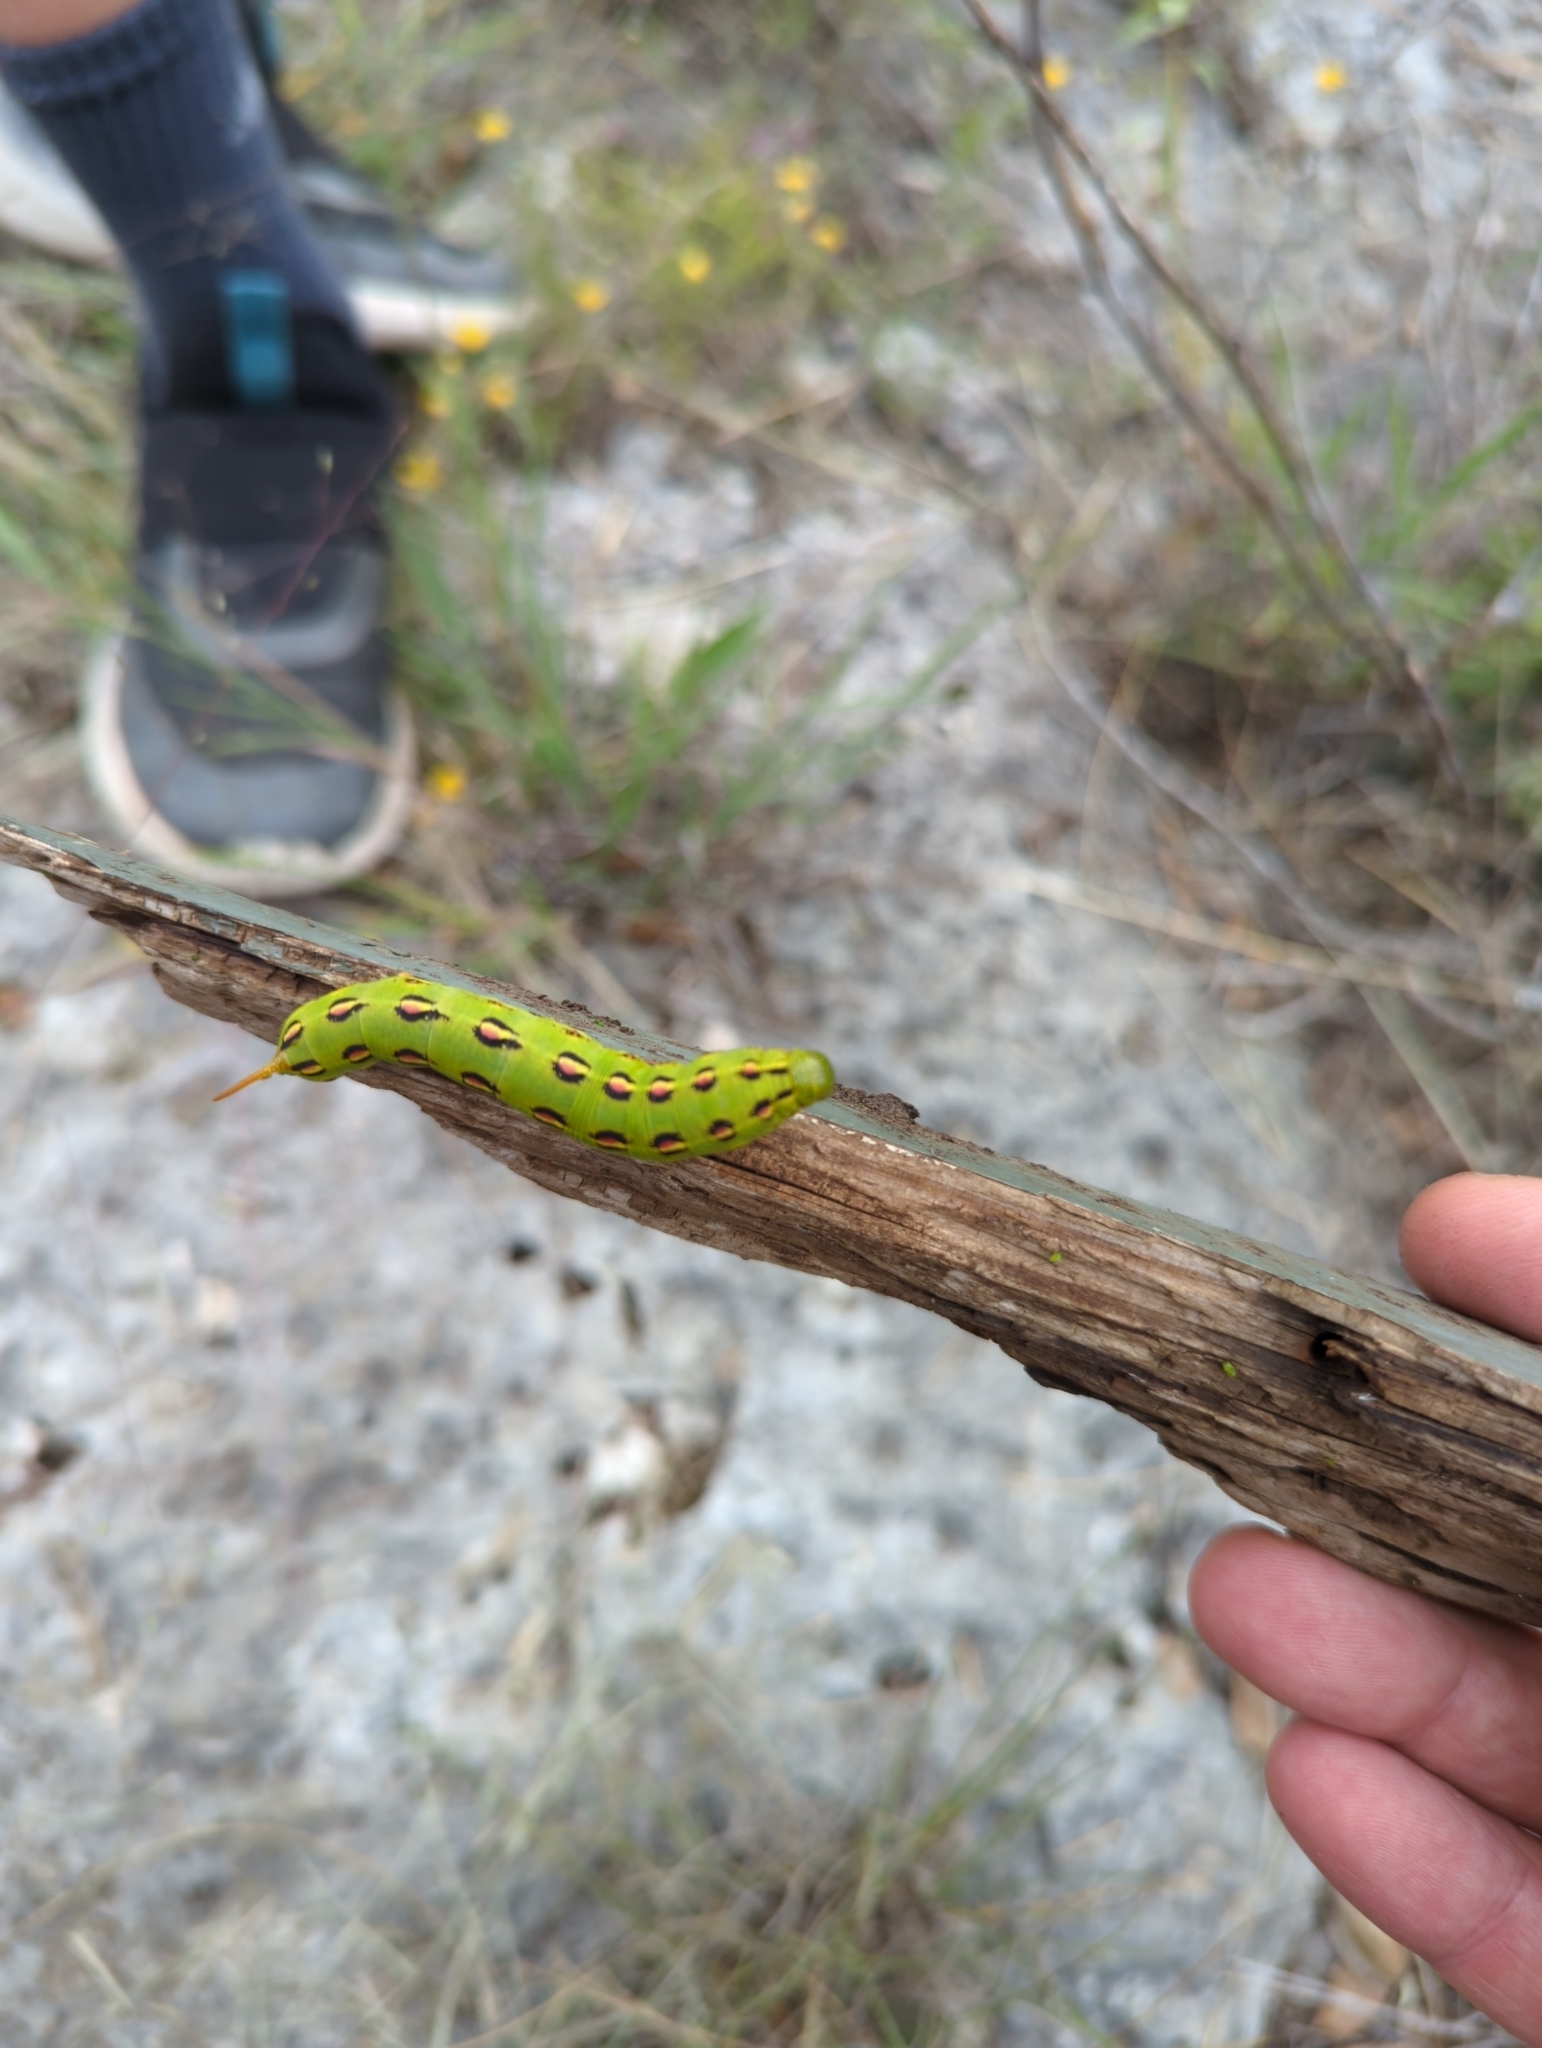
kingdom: Animalia
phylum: Arthropoda
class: Insecta
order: Lepidoptera
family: Sphingidae
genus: Hyles
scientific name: Hyles lineata
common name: White-lined sphinx
